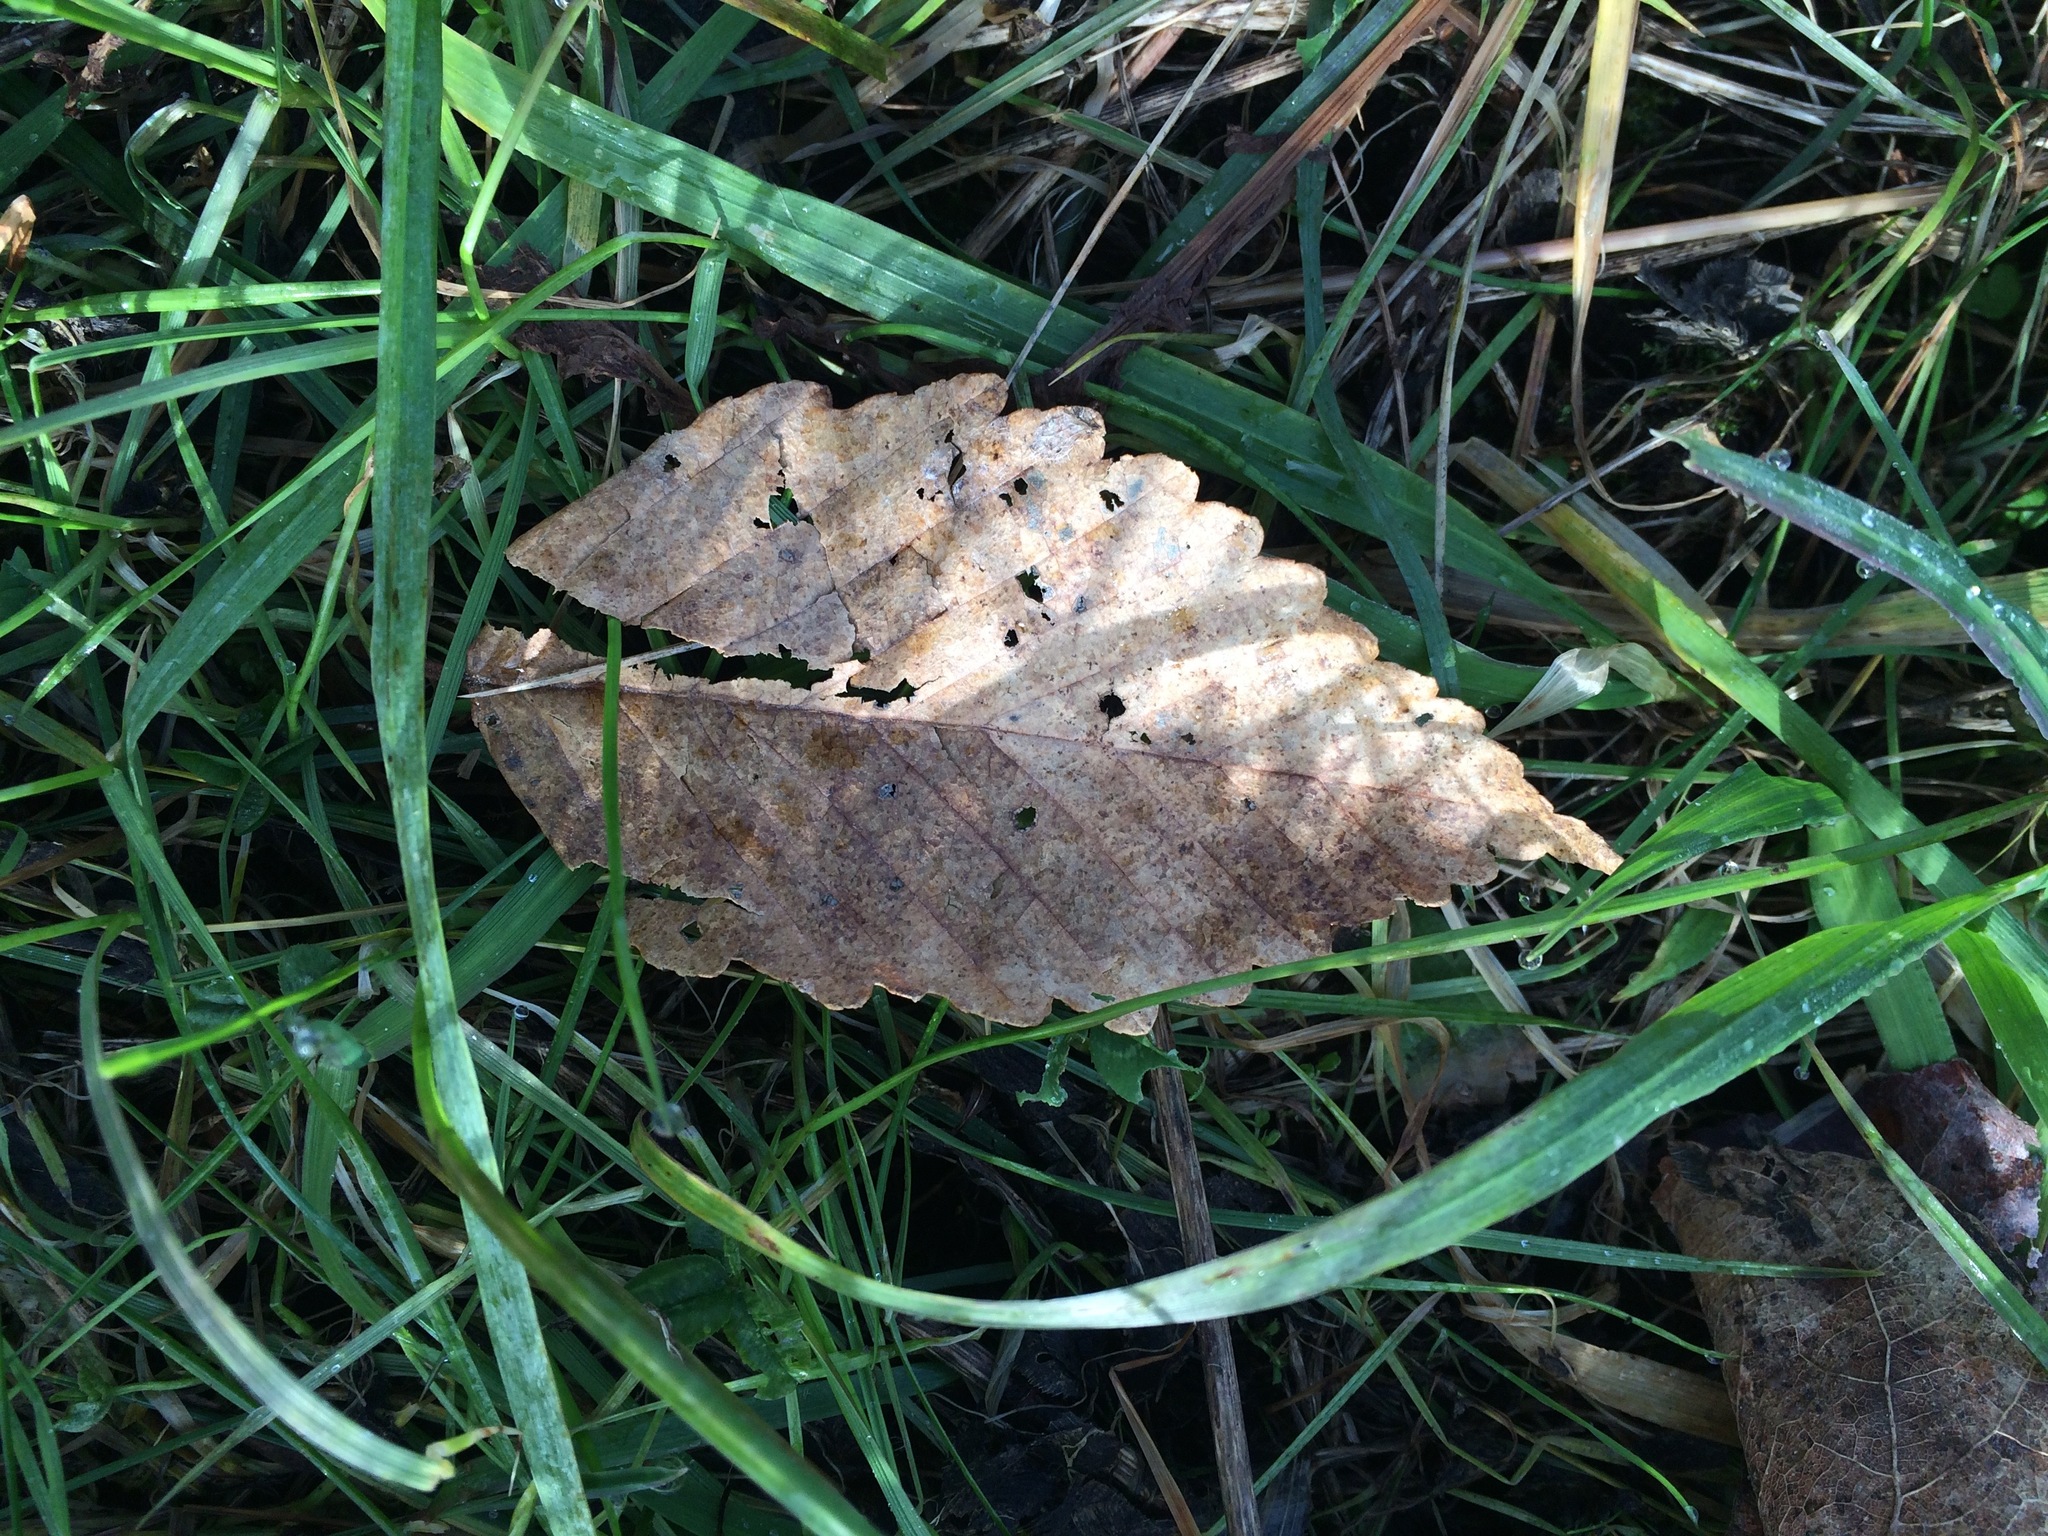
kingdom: Plantae
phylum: Tracheophyta
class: Magnoliopsida
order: Fagales
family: Betulaceae
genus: Alnus
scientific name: Alnus rubra
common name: Red alder
